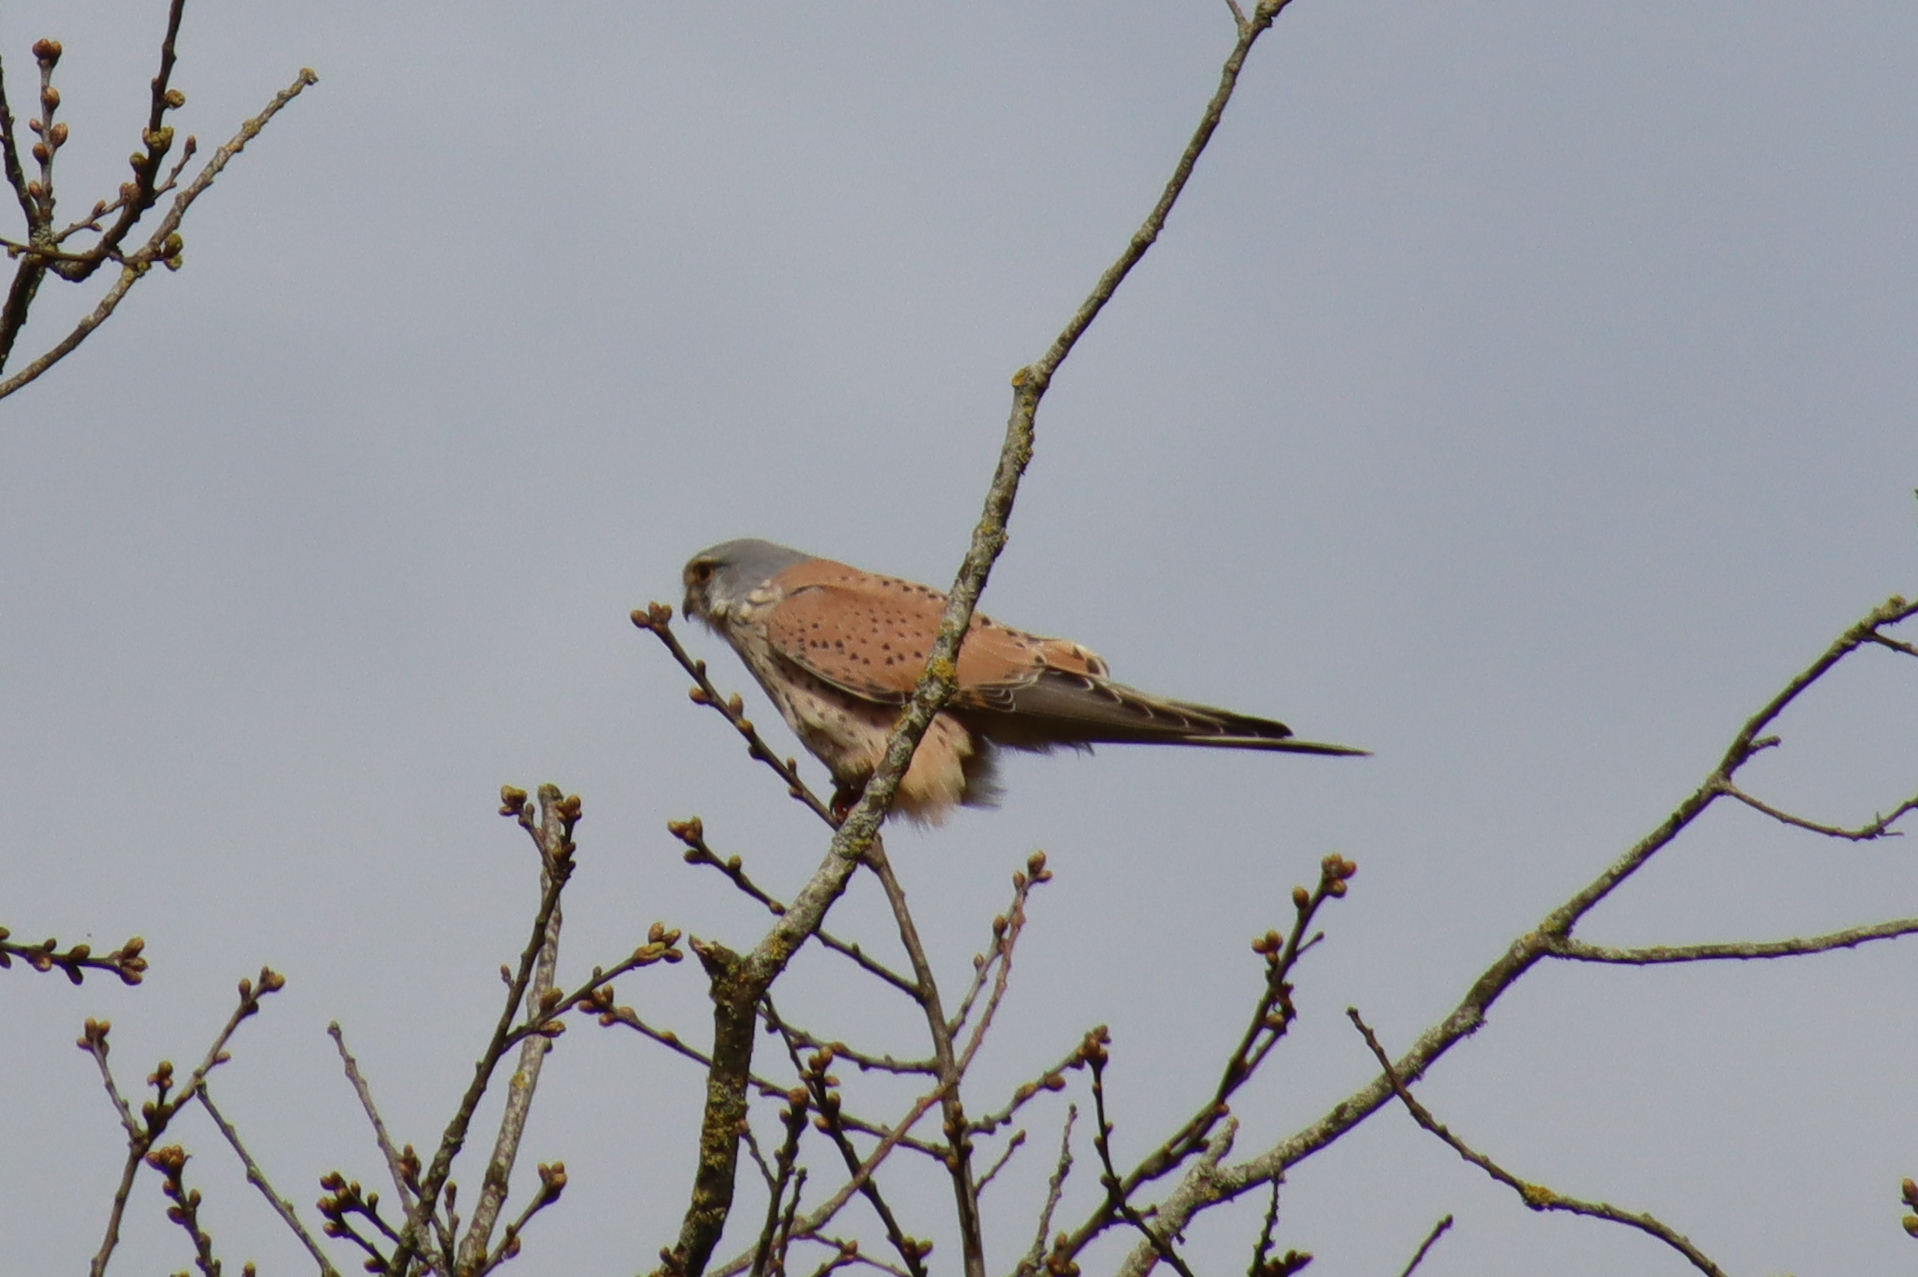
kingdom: Animalia
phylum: Chordata
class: Aves
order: Falconiformes
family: Falconidae
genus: Falco
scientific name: Falco tinnunculus
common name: Common kestrel
